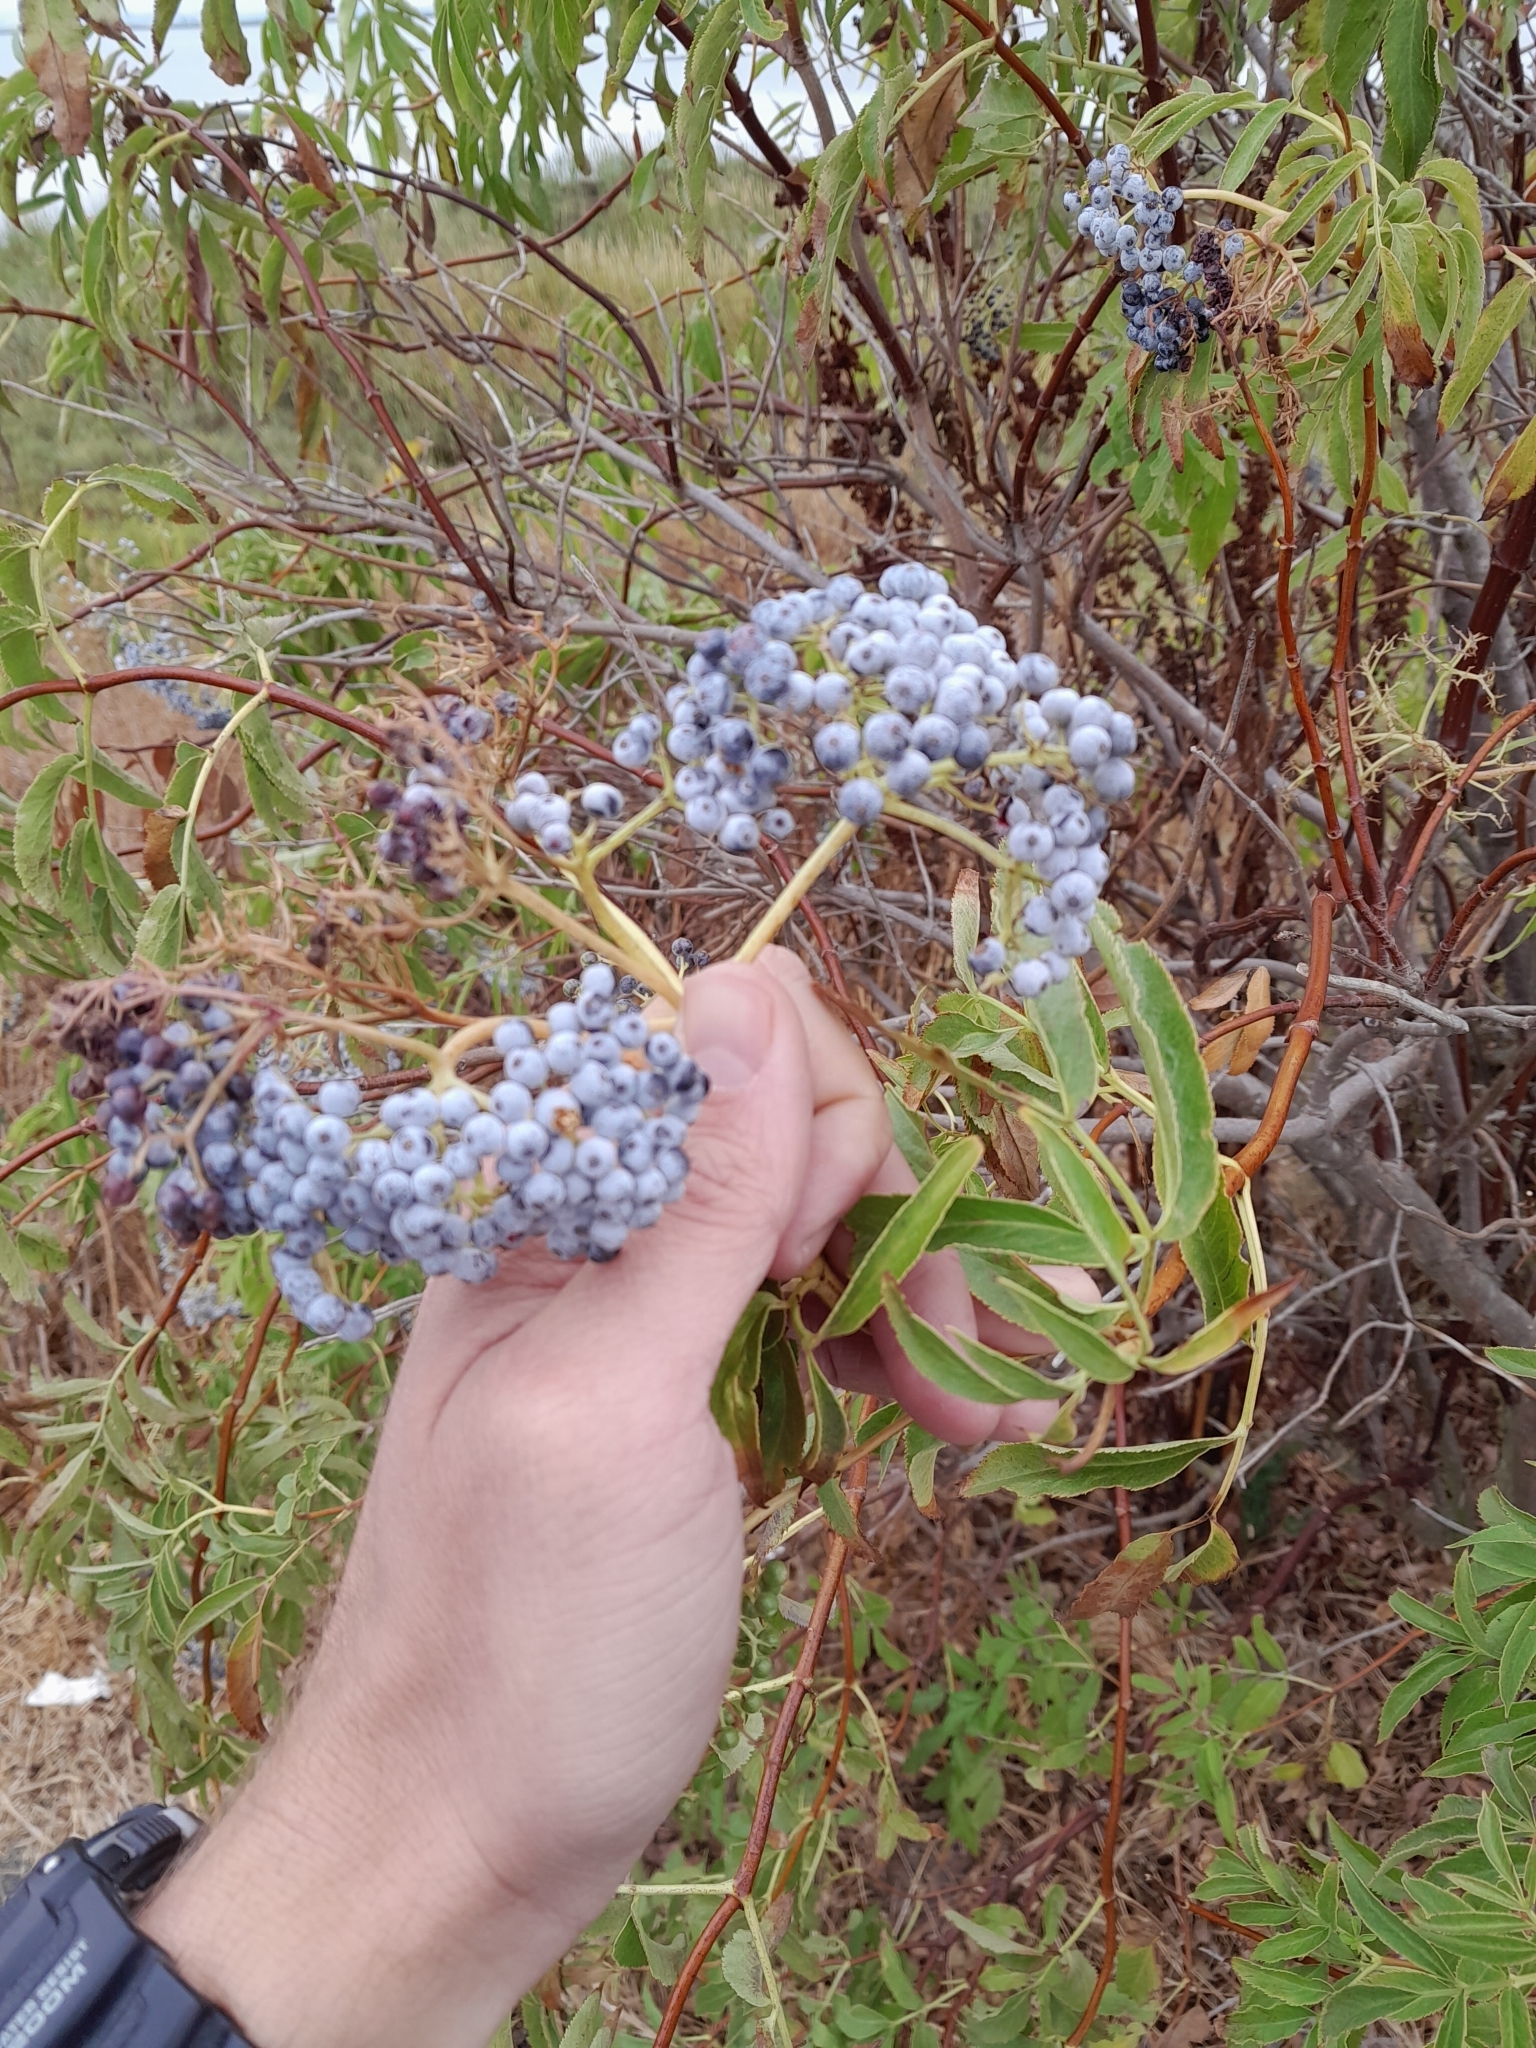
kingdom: Plantae
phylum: Tracheophyta
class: Magnoliopsida
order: Dipsacales
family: Viburnaceae
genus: Sambucus
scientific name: Sambucus cerulea
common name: Blue elder
